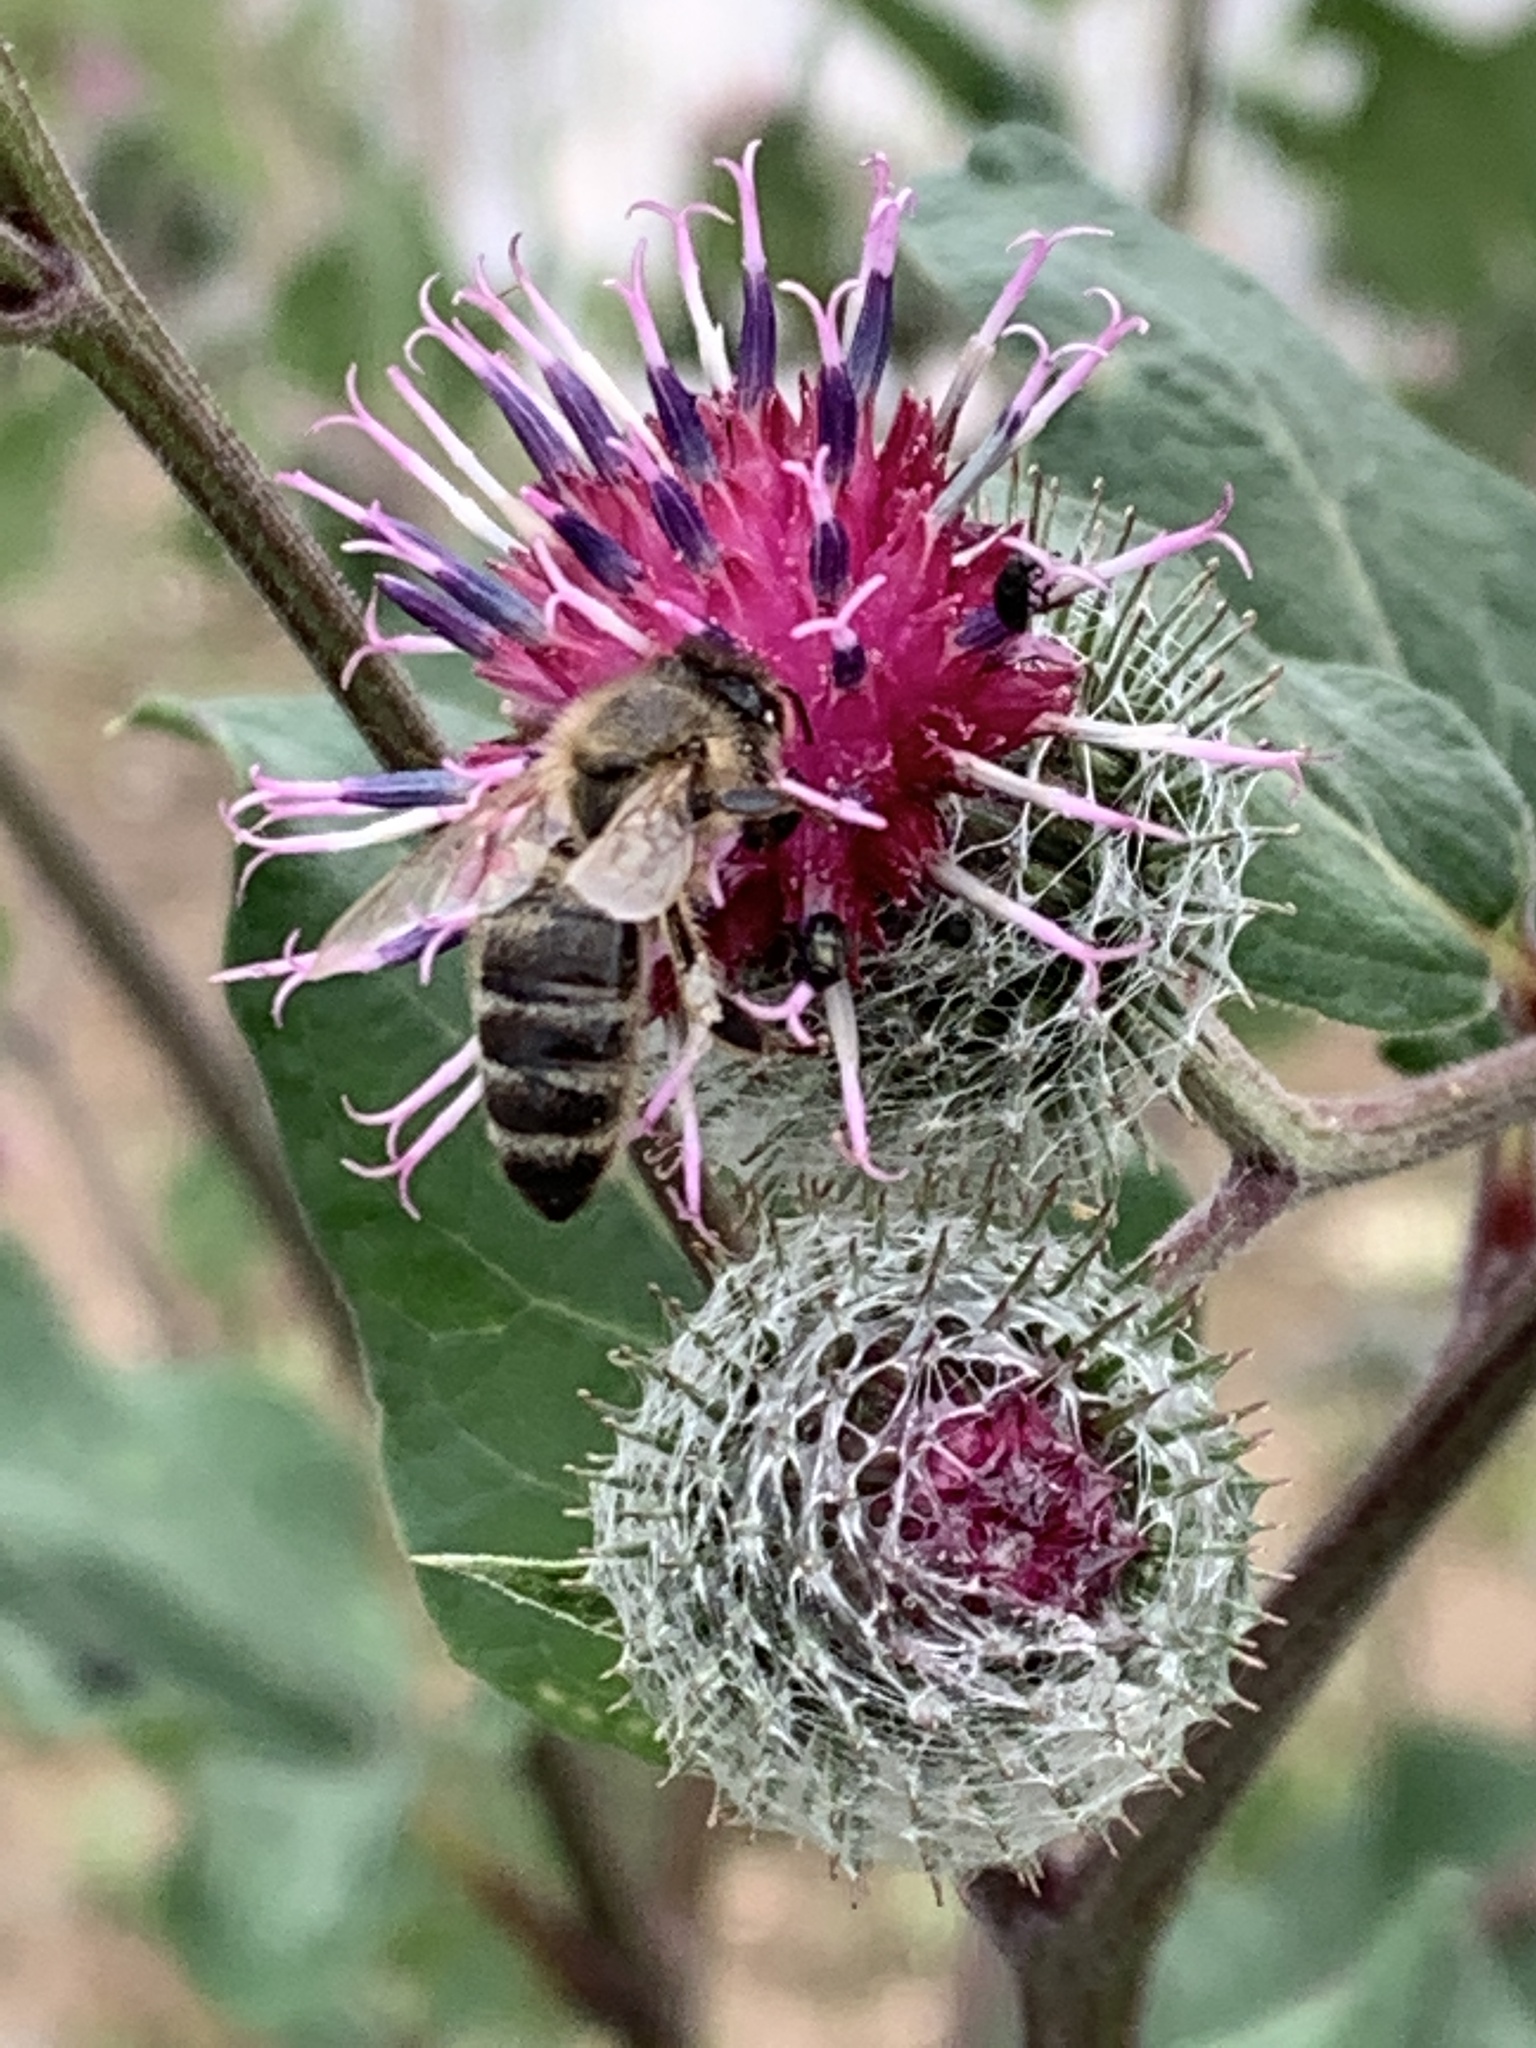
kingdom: Animalia
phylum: Arthropoda
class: Insecta
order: Hymenoptera
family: Apidae
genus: Apis
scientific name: Apis mellifera
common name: Honey bee
